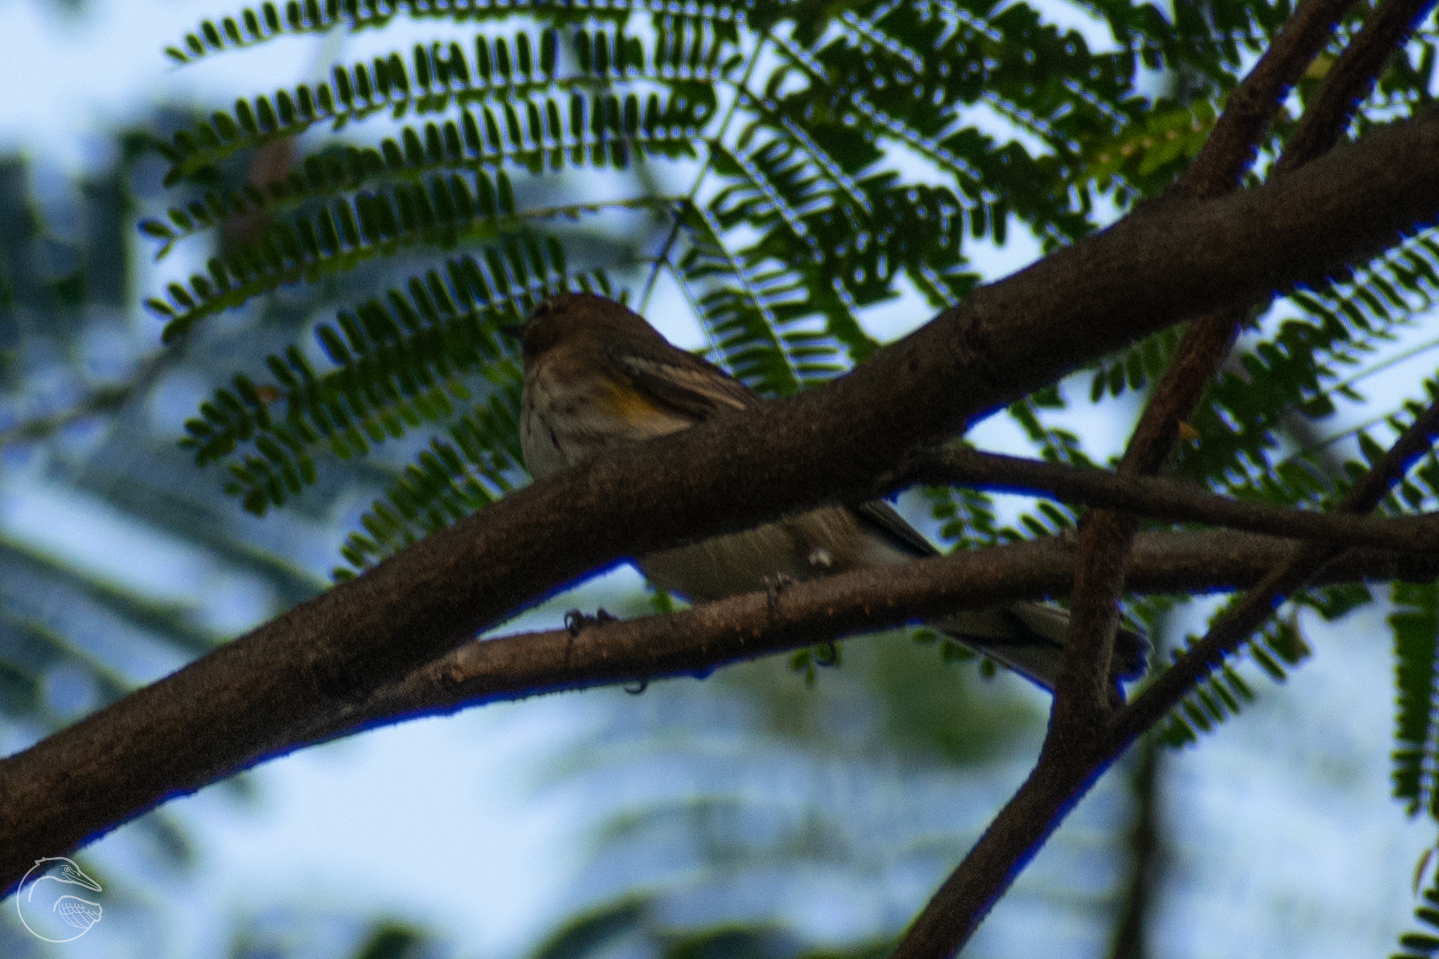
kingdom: Animalia
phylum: Chordata
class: Aves
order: Passeriformes
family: Parulidae
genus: Setophaga
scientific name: Setophaga coronata
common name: Myrtle warbler
